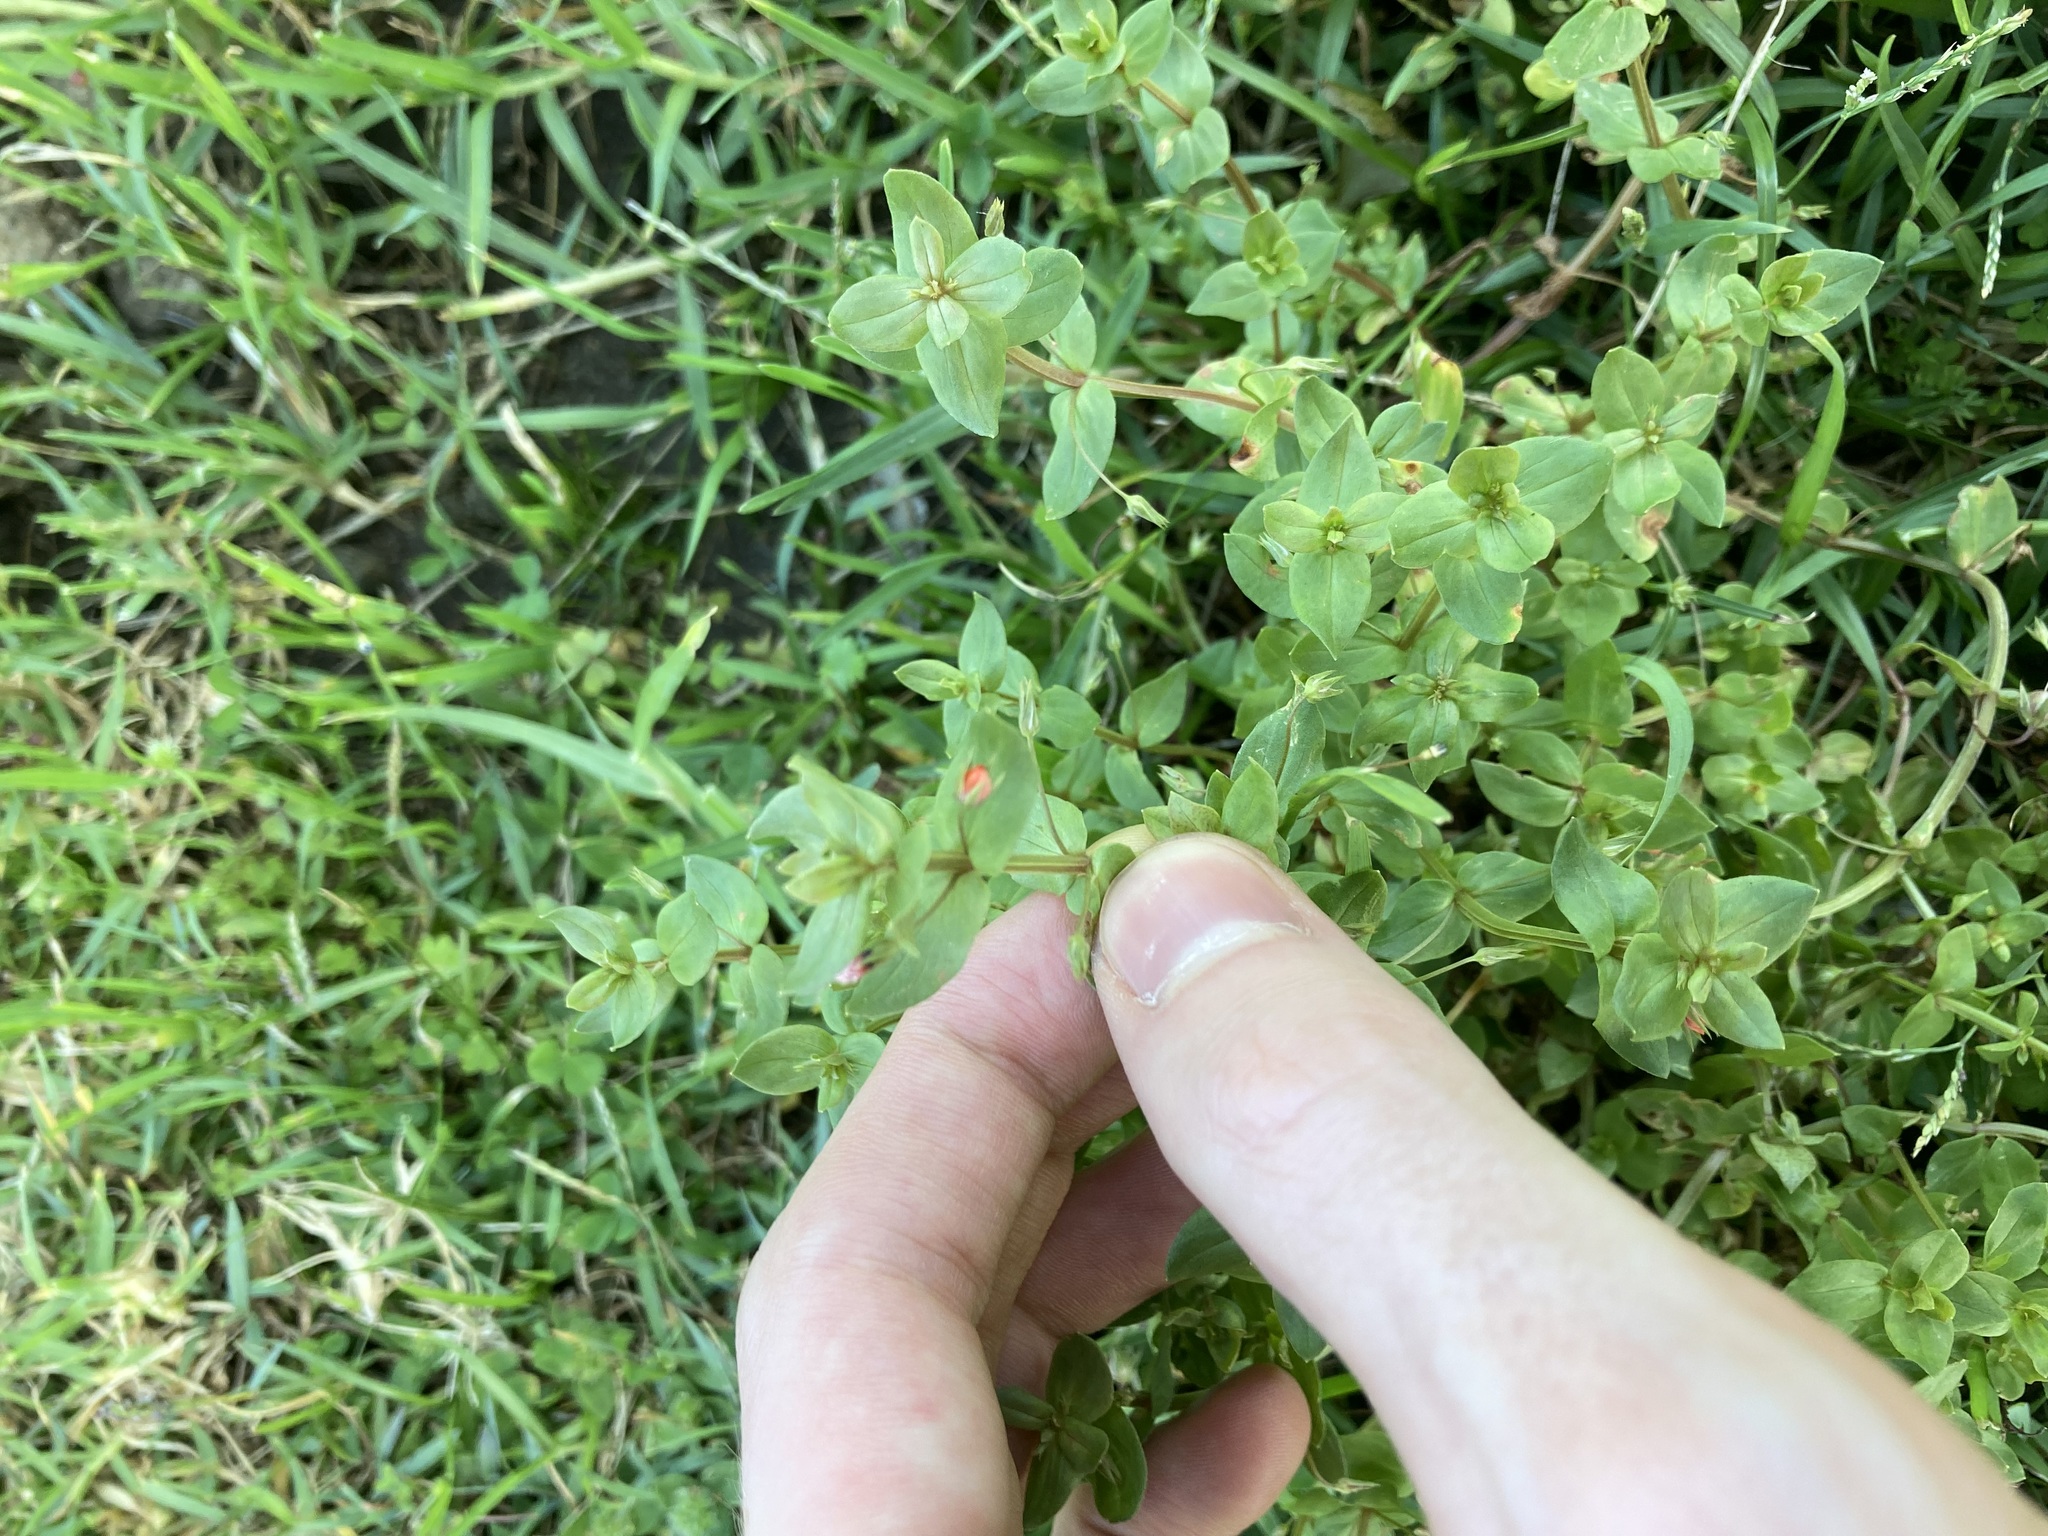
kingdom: Plantae
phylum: Tracheophyta
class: Magnoliopsida
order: Ericales
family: Primulaceae
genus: Lysimachia
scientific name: Lysimachia arvensis
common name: Scarlet pimpernel
